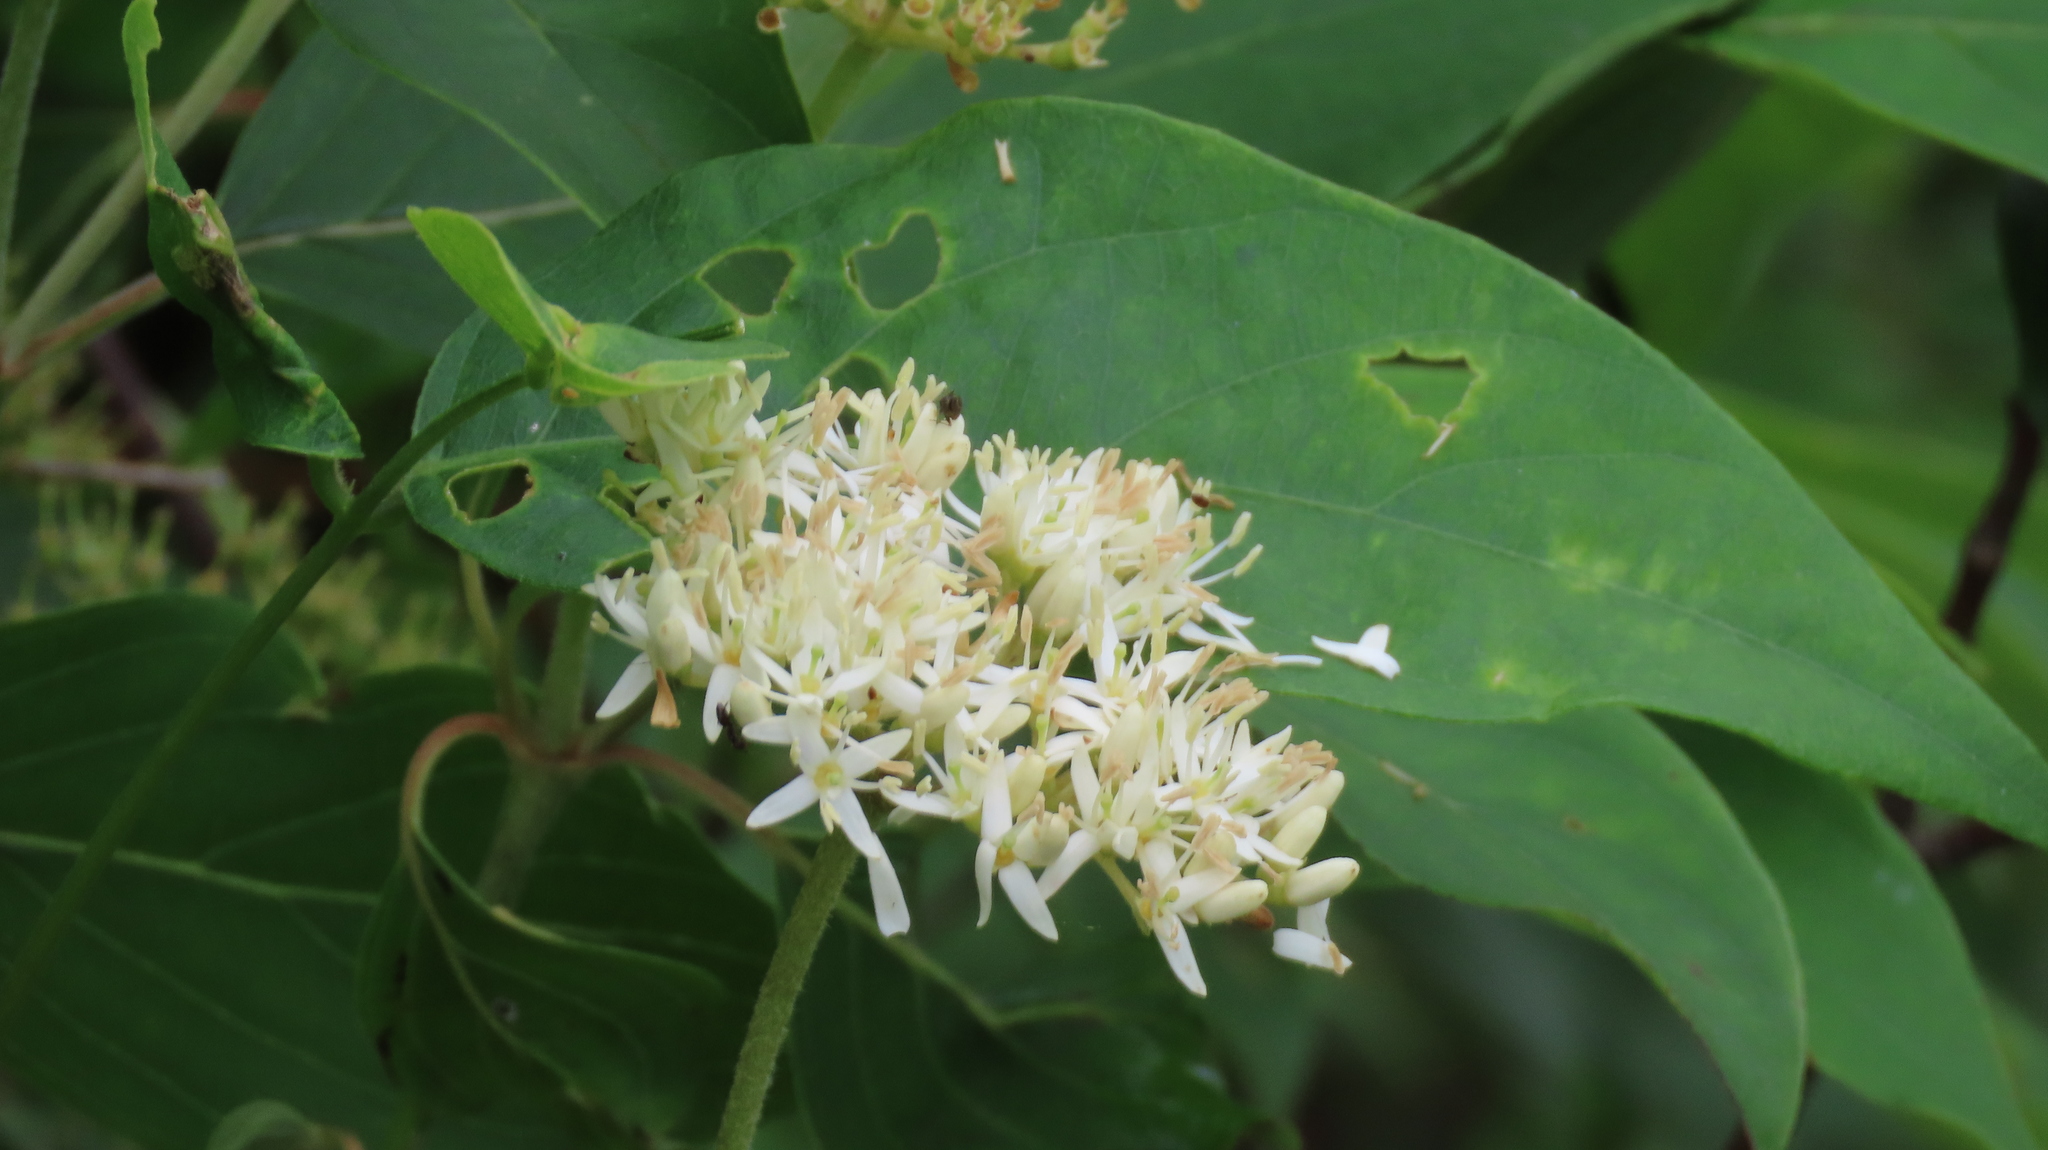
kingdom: Plantae
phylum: Tracheophyta
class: Magnoliopsida
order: Cucurbitales
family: Cucurbitaceae
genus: Echinocystis
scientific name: Echinocystis lobata
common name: Wild cucumber
